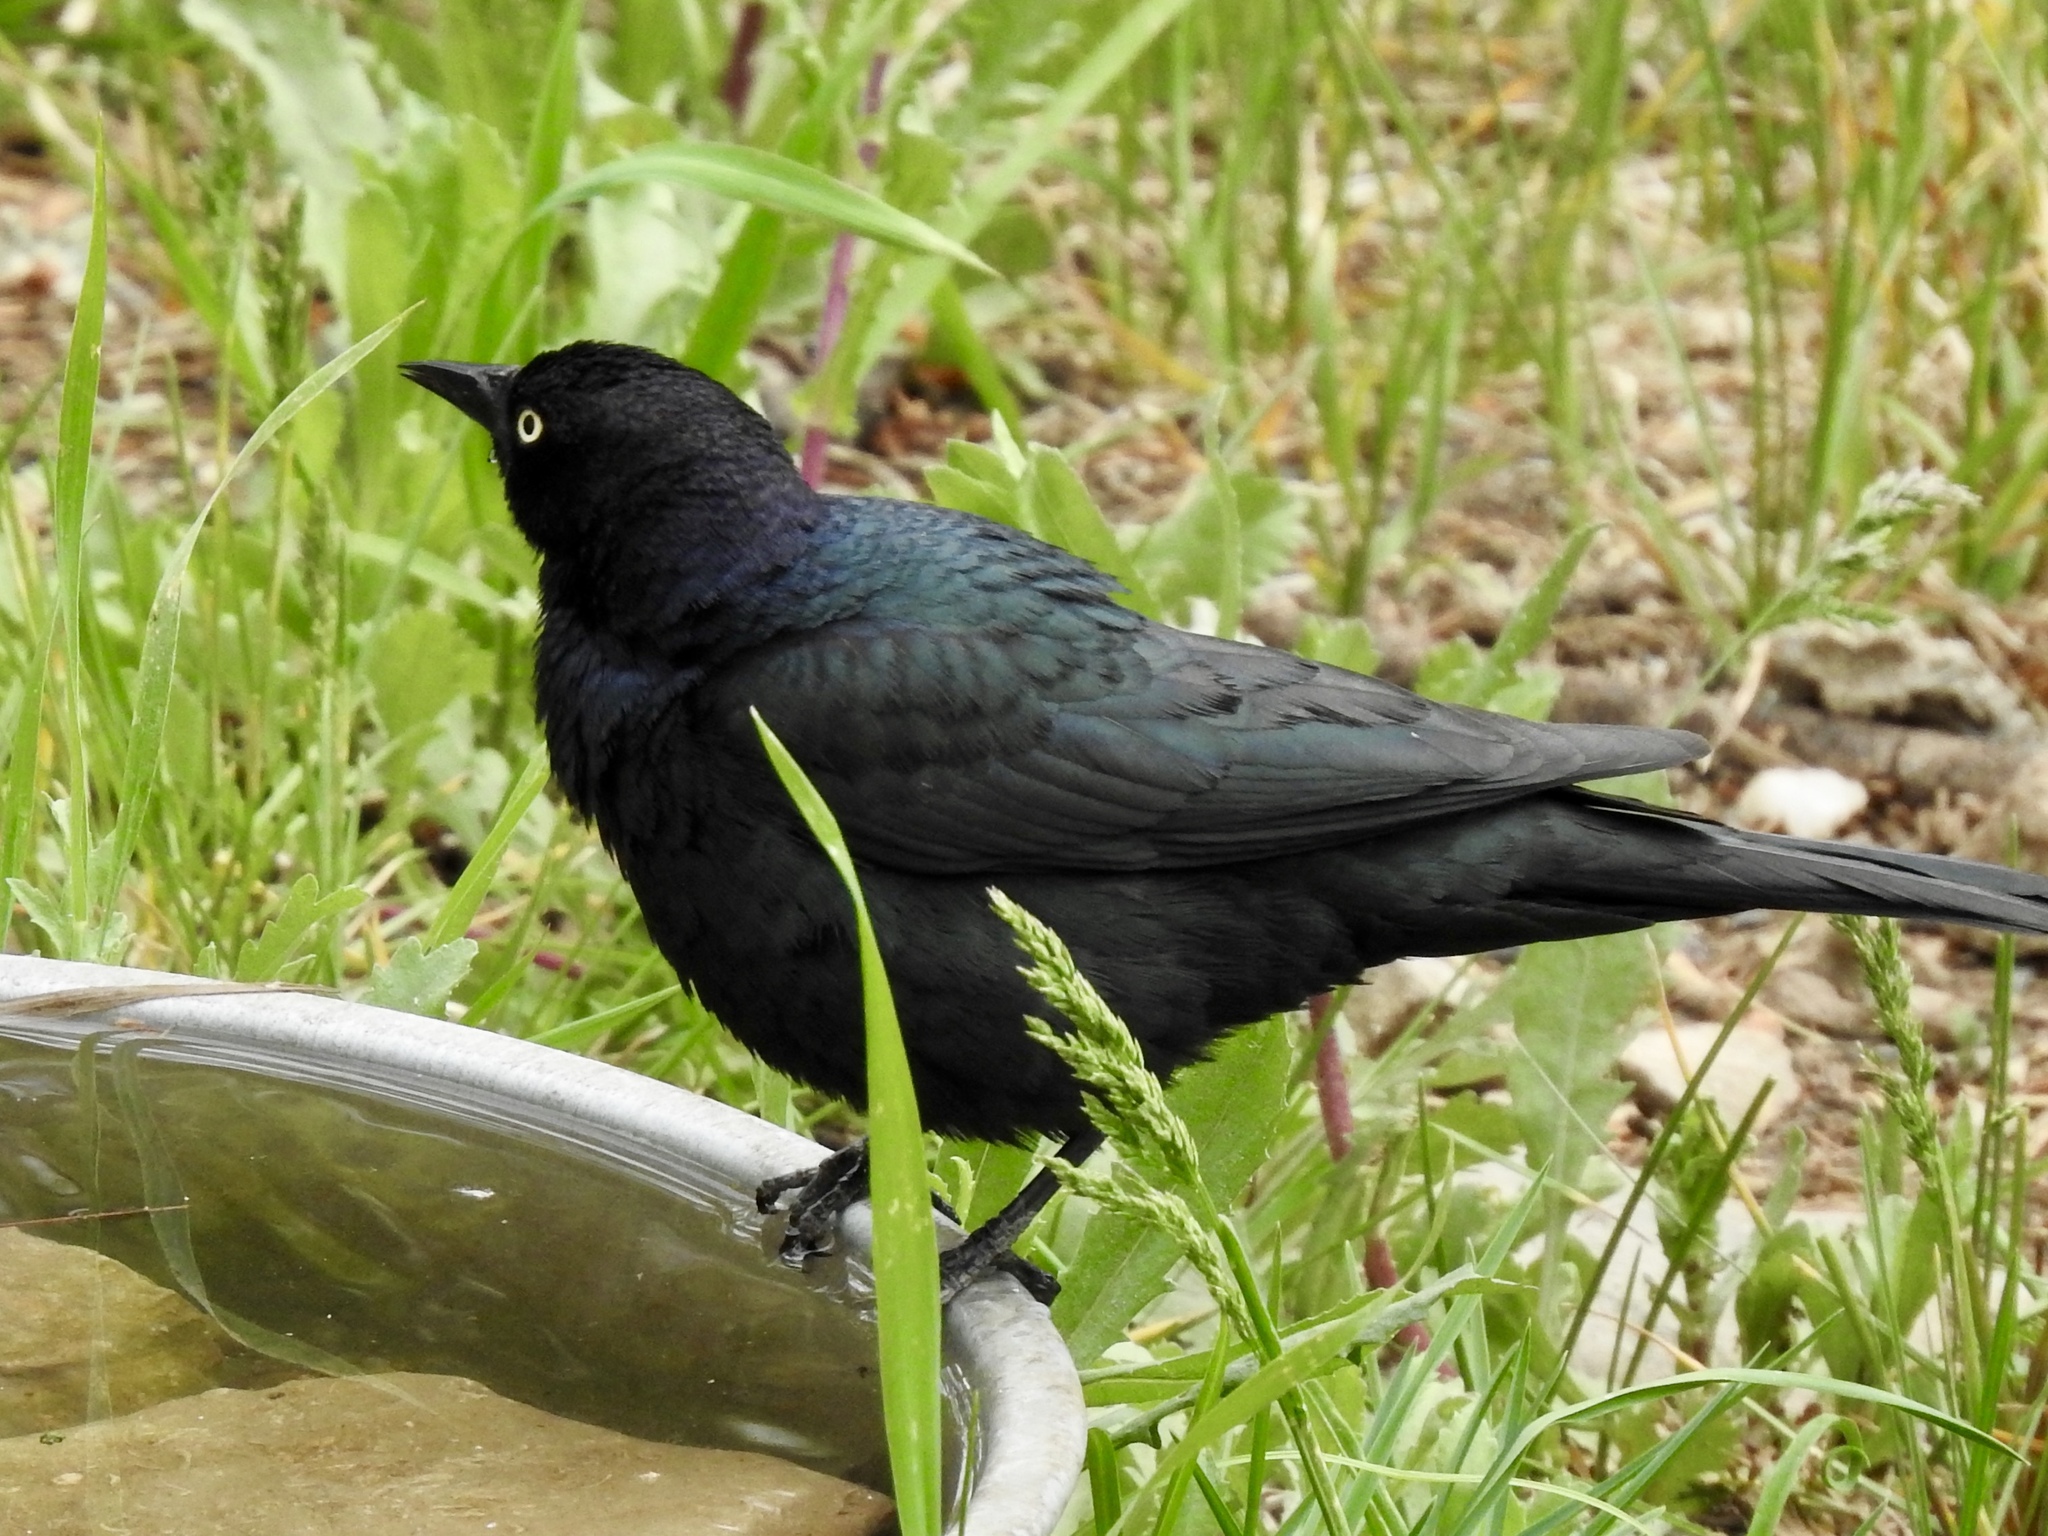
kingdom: Animalia
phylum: Chordata
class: Aves
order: Passeriformes
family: Icteridae
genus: Euphagus
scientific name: Euphagus cyanocephalus
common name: Brewer's blackbird
